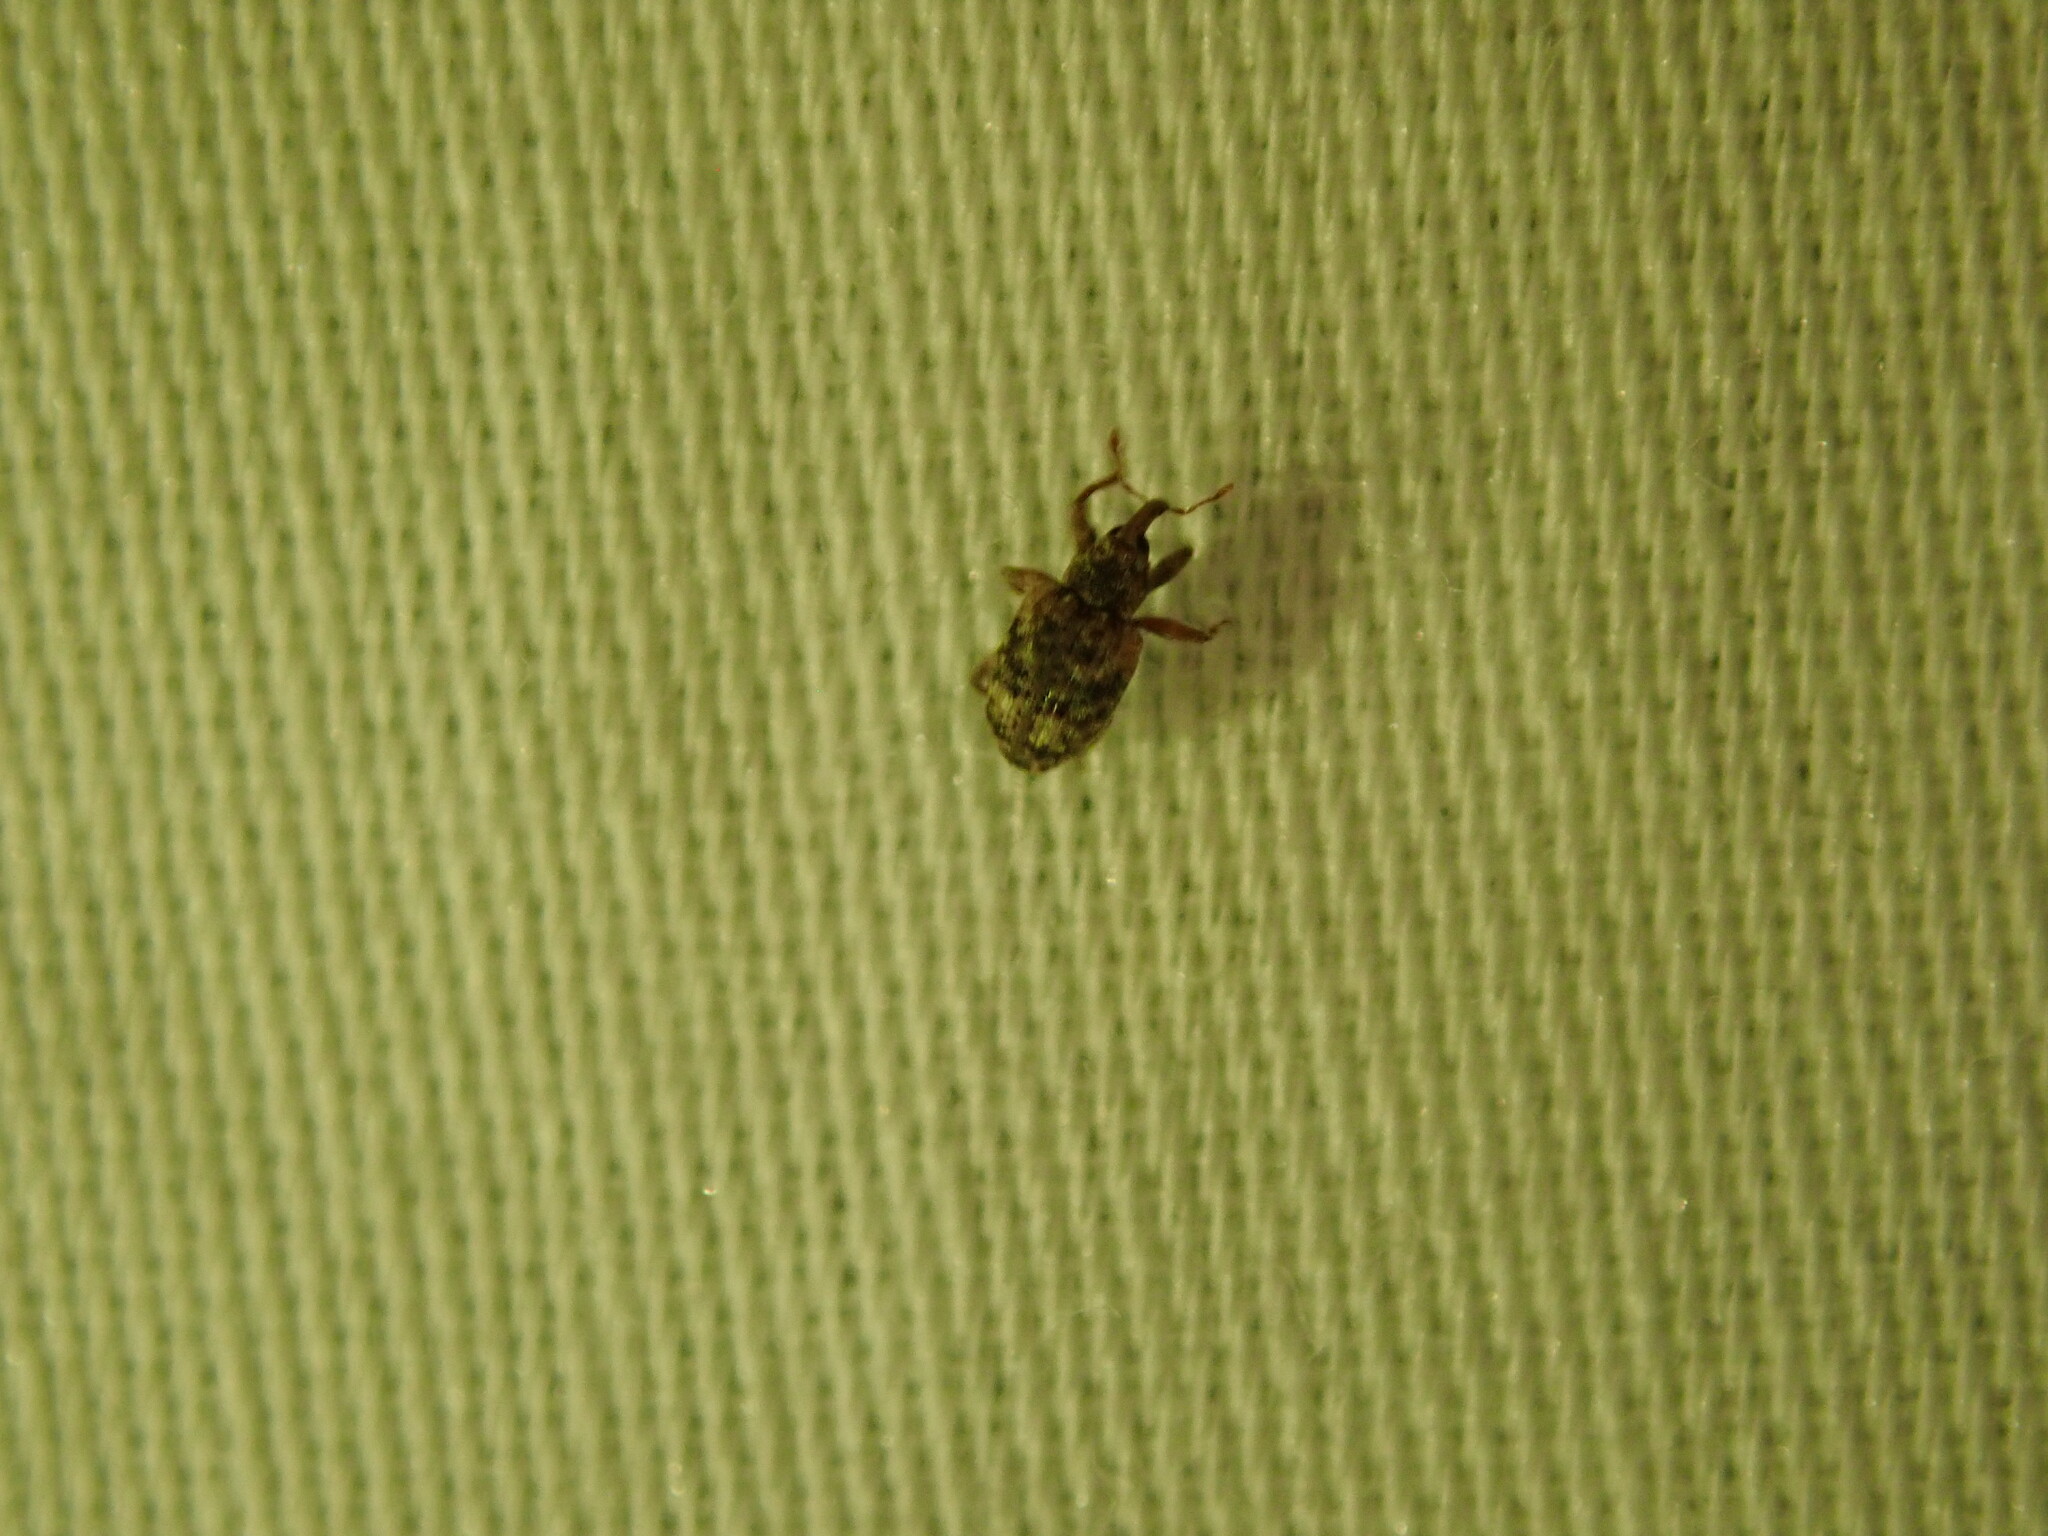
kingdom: Animalia
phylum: Arthropoda
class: Insecta
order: Coleoptera
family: Curculionidae
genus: Conotrachelus
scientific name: Conotrachelus recessus
